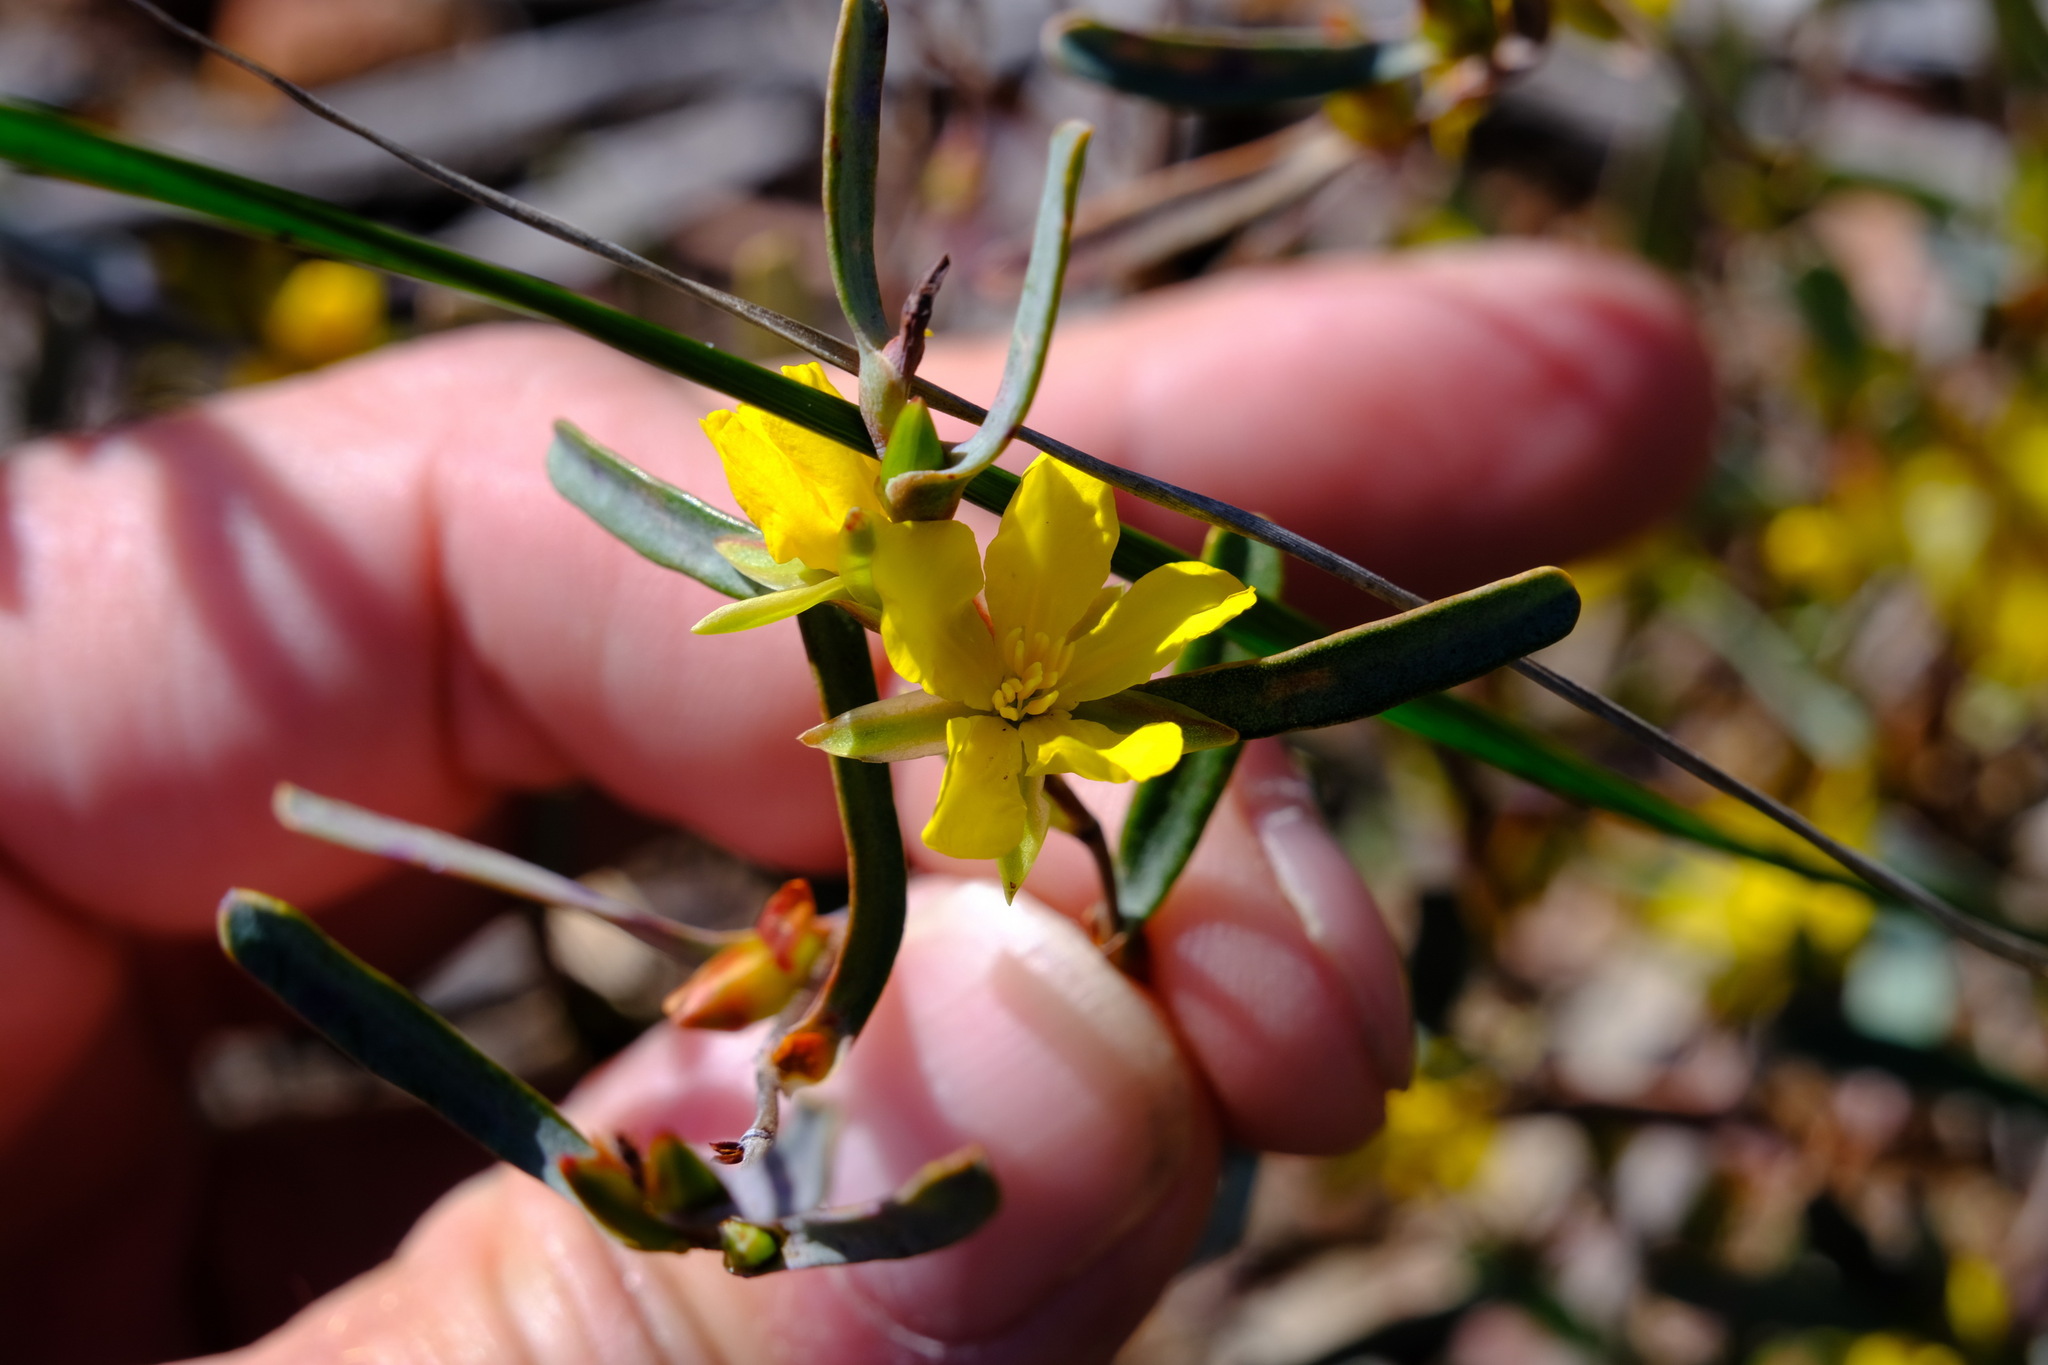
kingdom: Plantae
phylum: Tracheophyta
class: Magnoliopsida
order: Dilleniales
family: Dilleniaceae
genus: Hibbertia
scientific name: Hibbertia subvaginata
